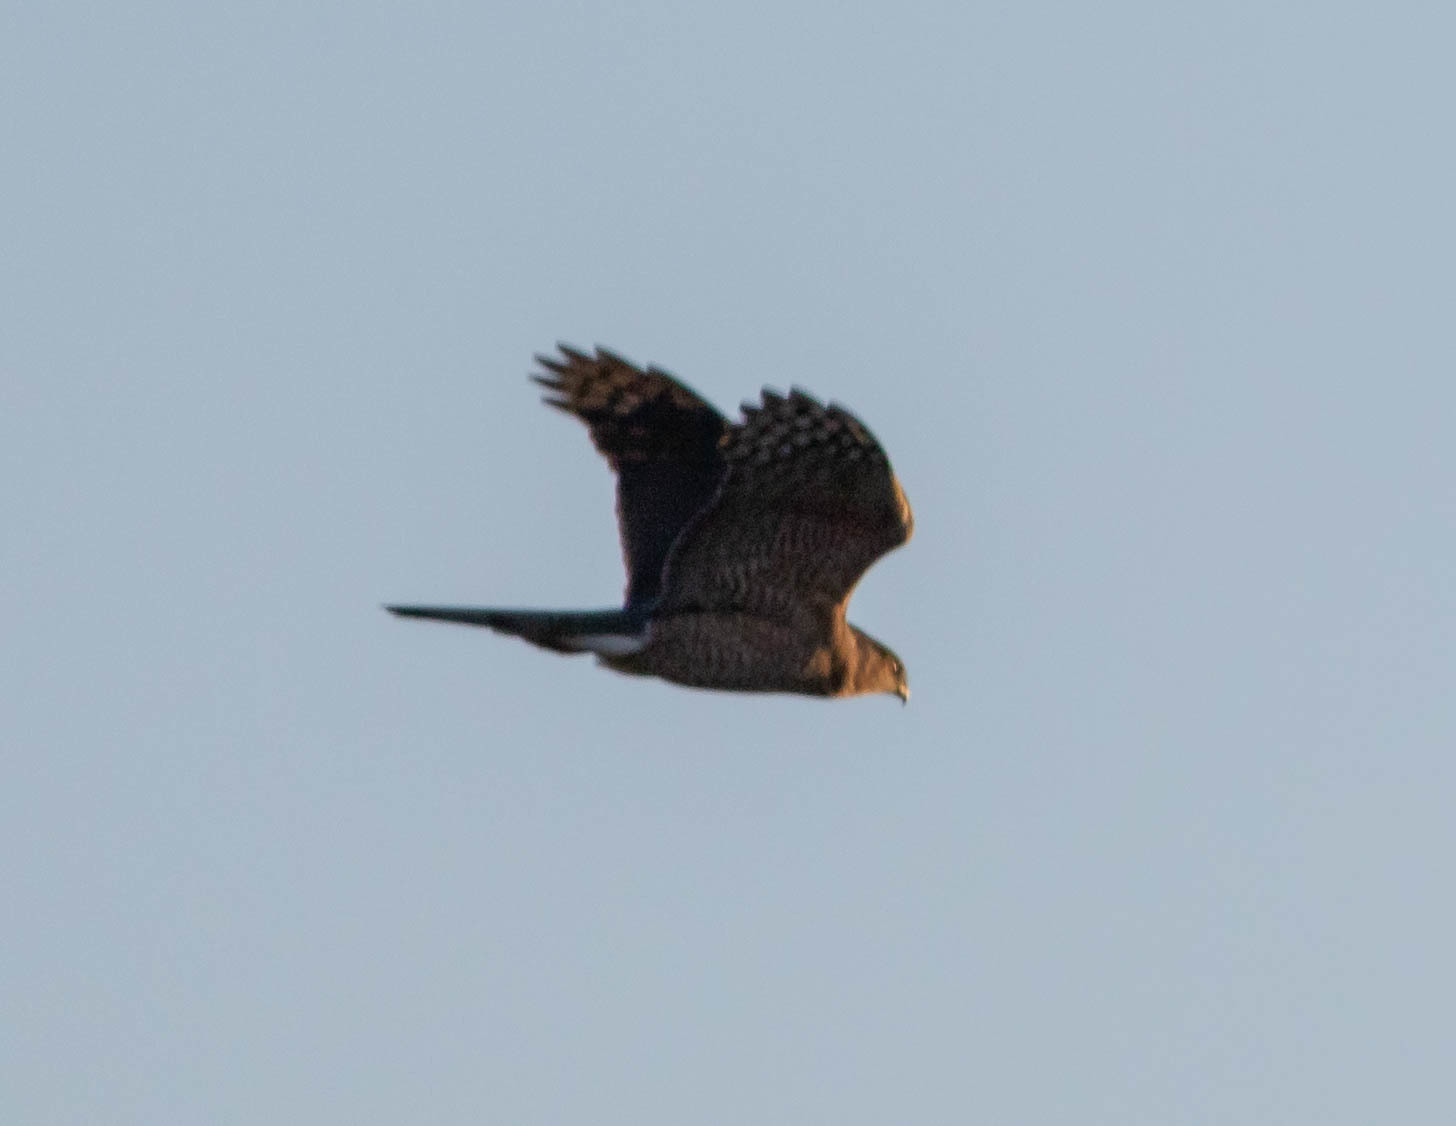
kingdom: Animalia
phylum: Chordata
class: Aves
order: Accipitriformes
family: Accipitridae
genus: Accipiter
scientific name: Accipiter striatus
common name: Sharp-shinned hawk
